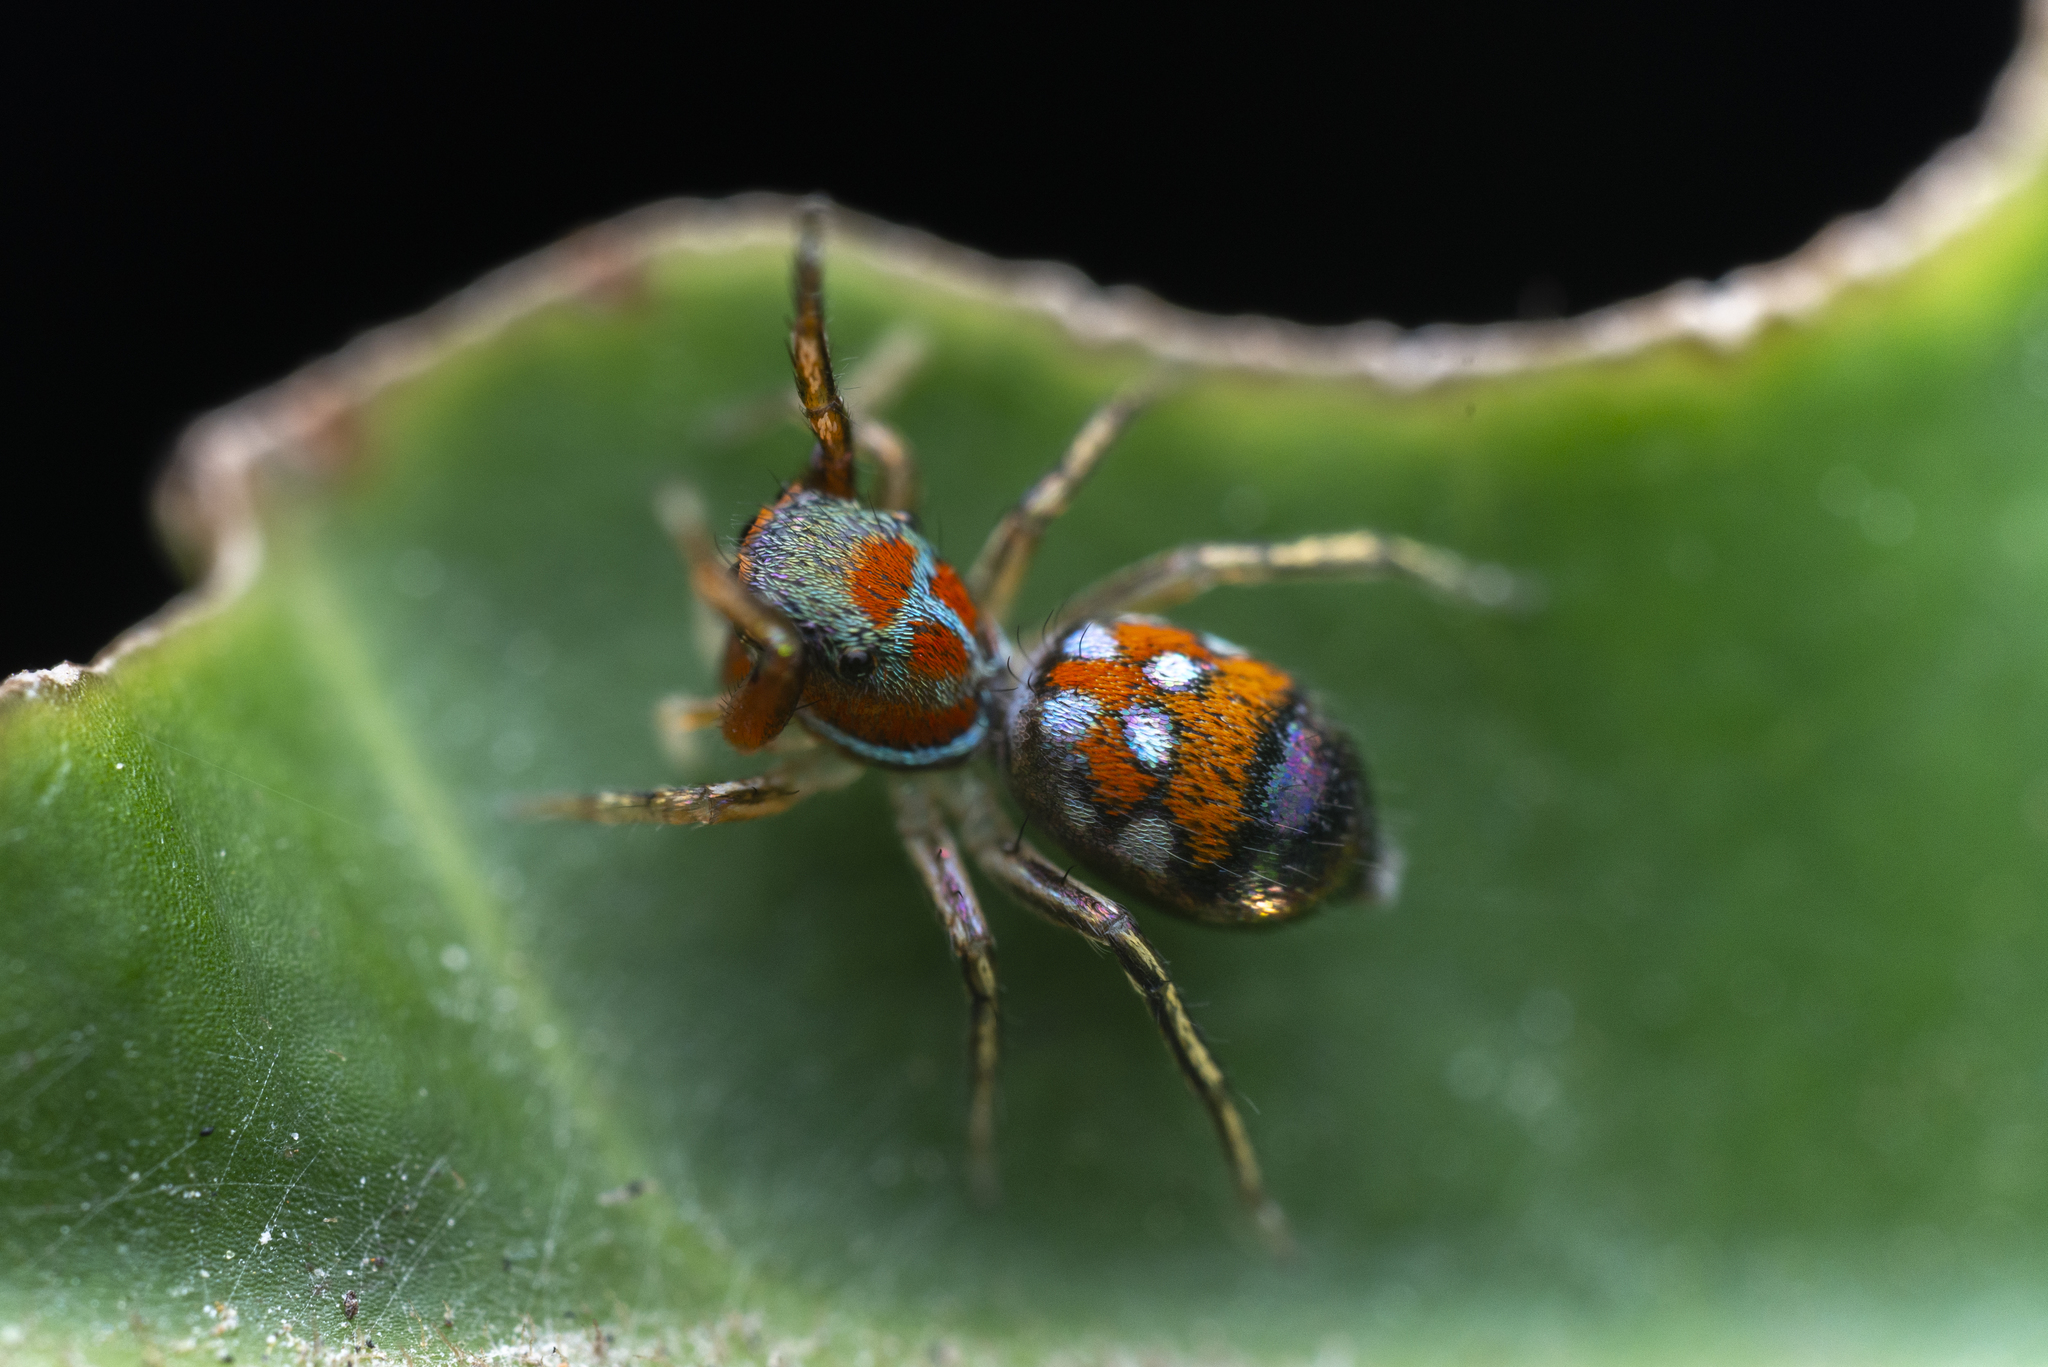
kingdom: Animalia
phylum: Arthropoda
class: Arachnida
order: Araneae
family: Salticidae
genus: Siler
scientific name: Siler collingwoodi
